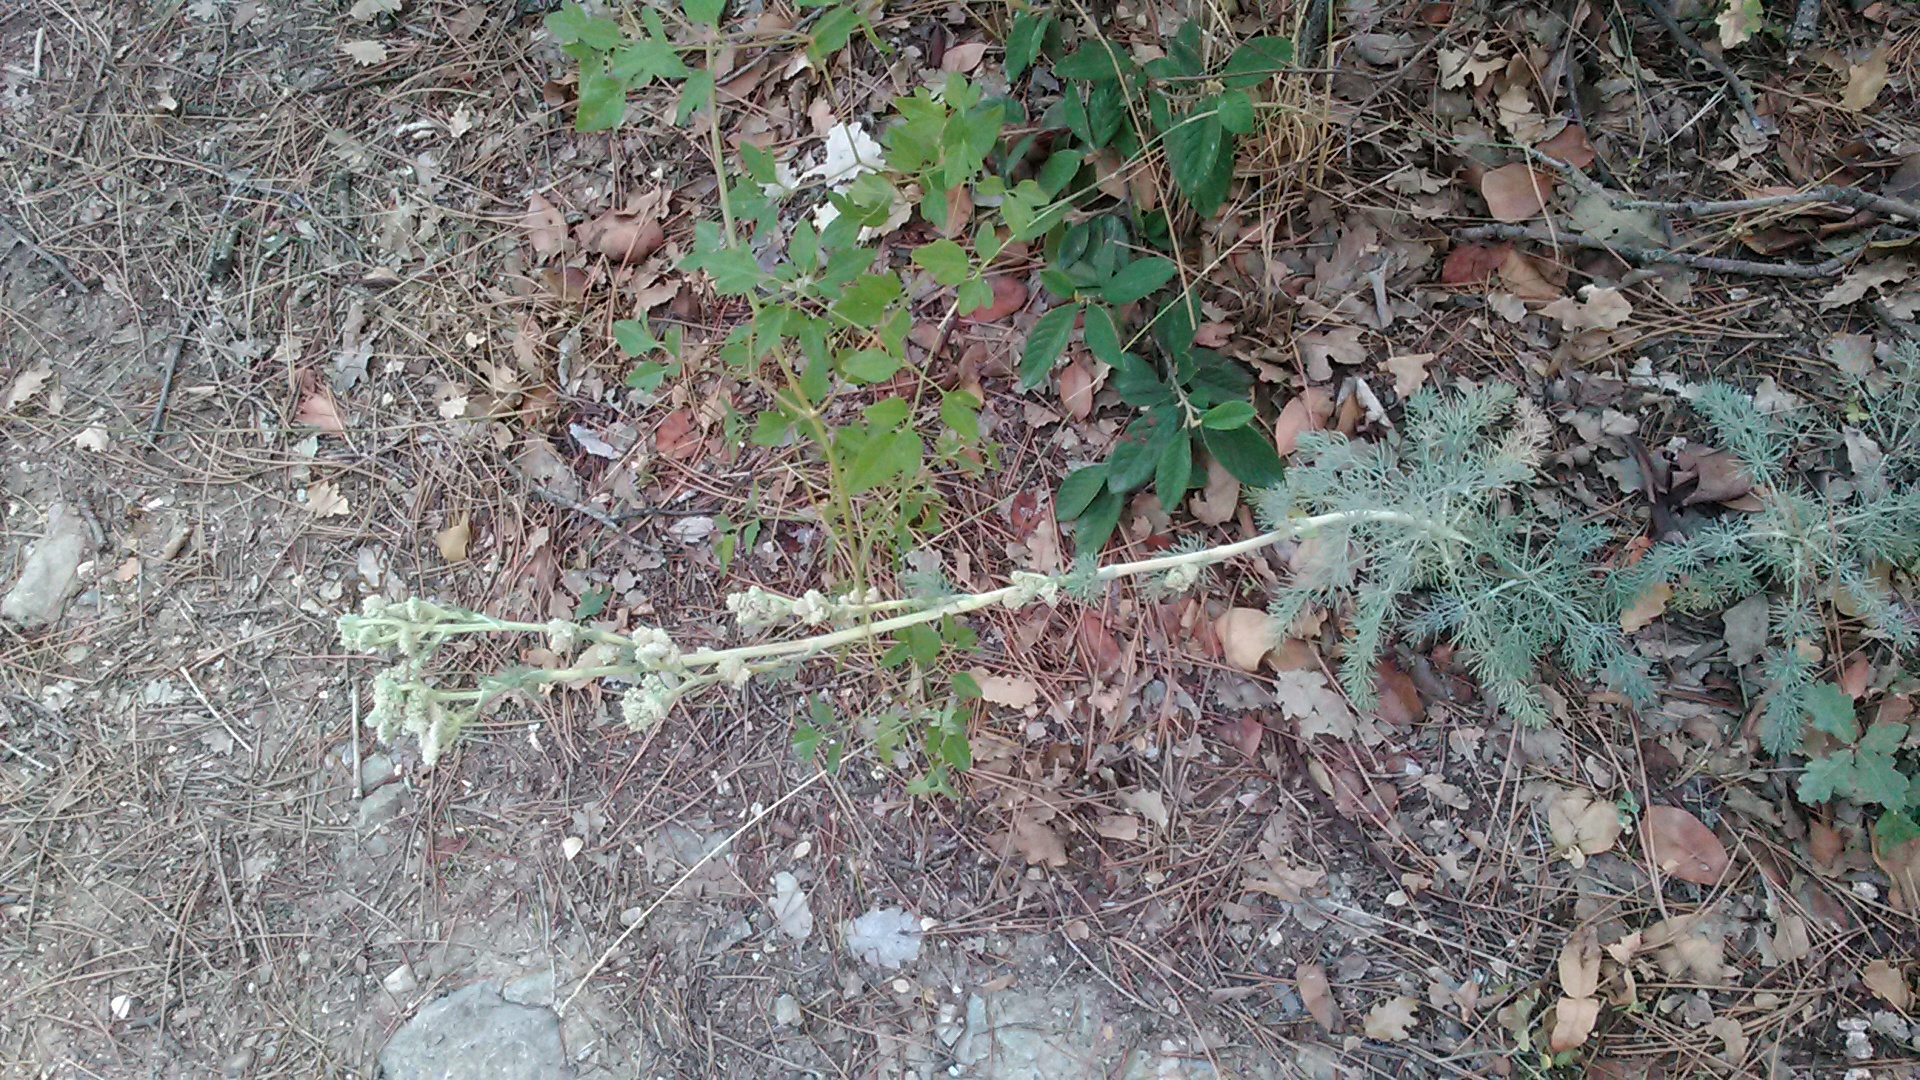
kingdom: Plantae
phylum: Tracheophyta
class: Magnoliopsida
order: Apiales
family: Apiaceae
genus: Seseli
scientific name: Seseli dichotomum
